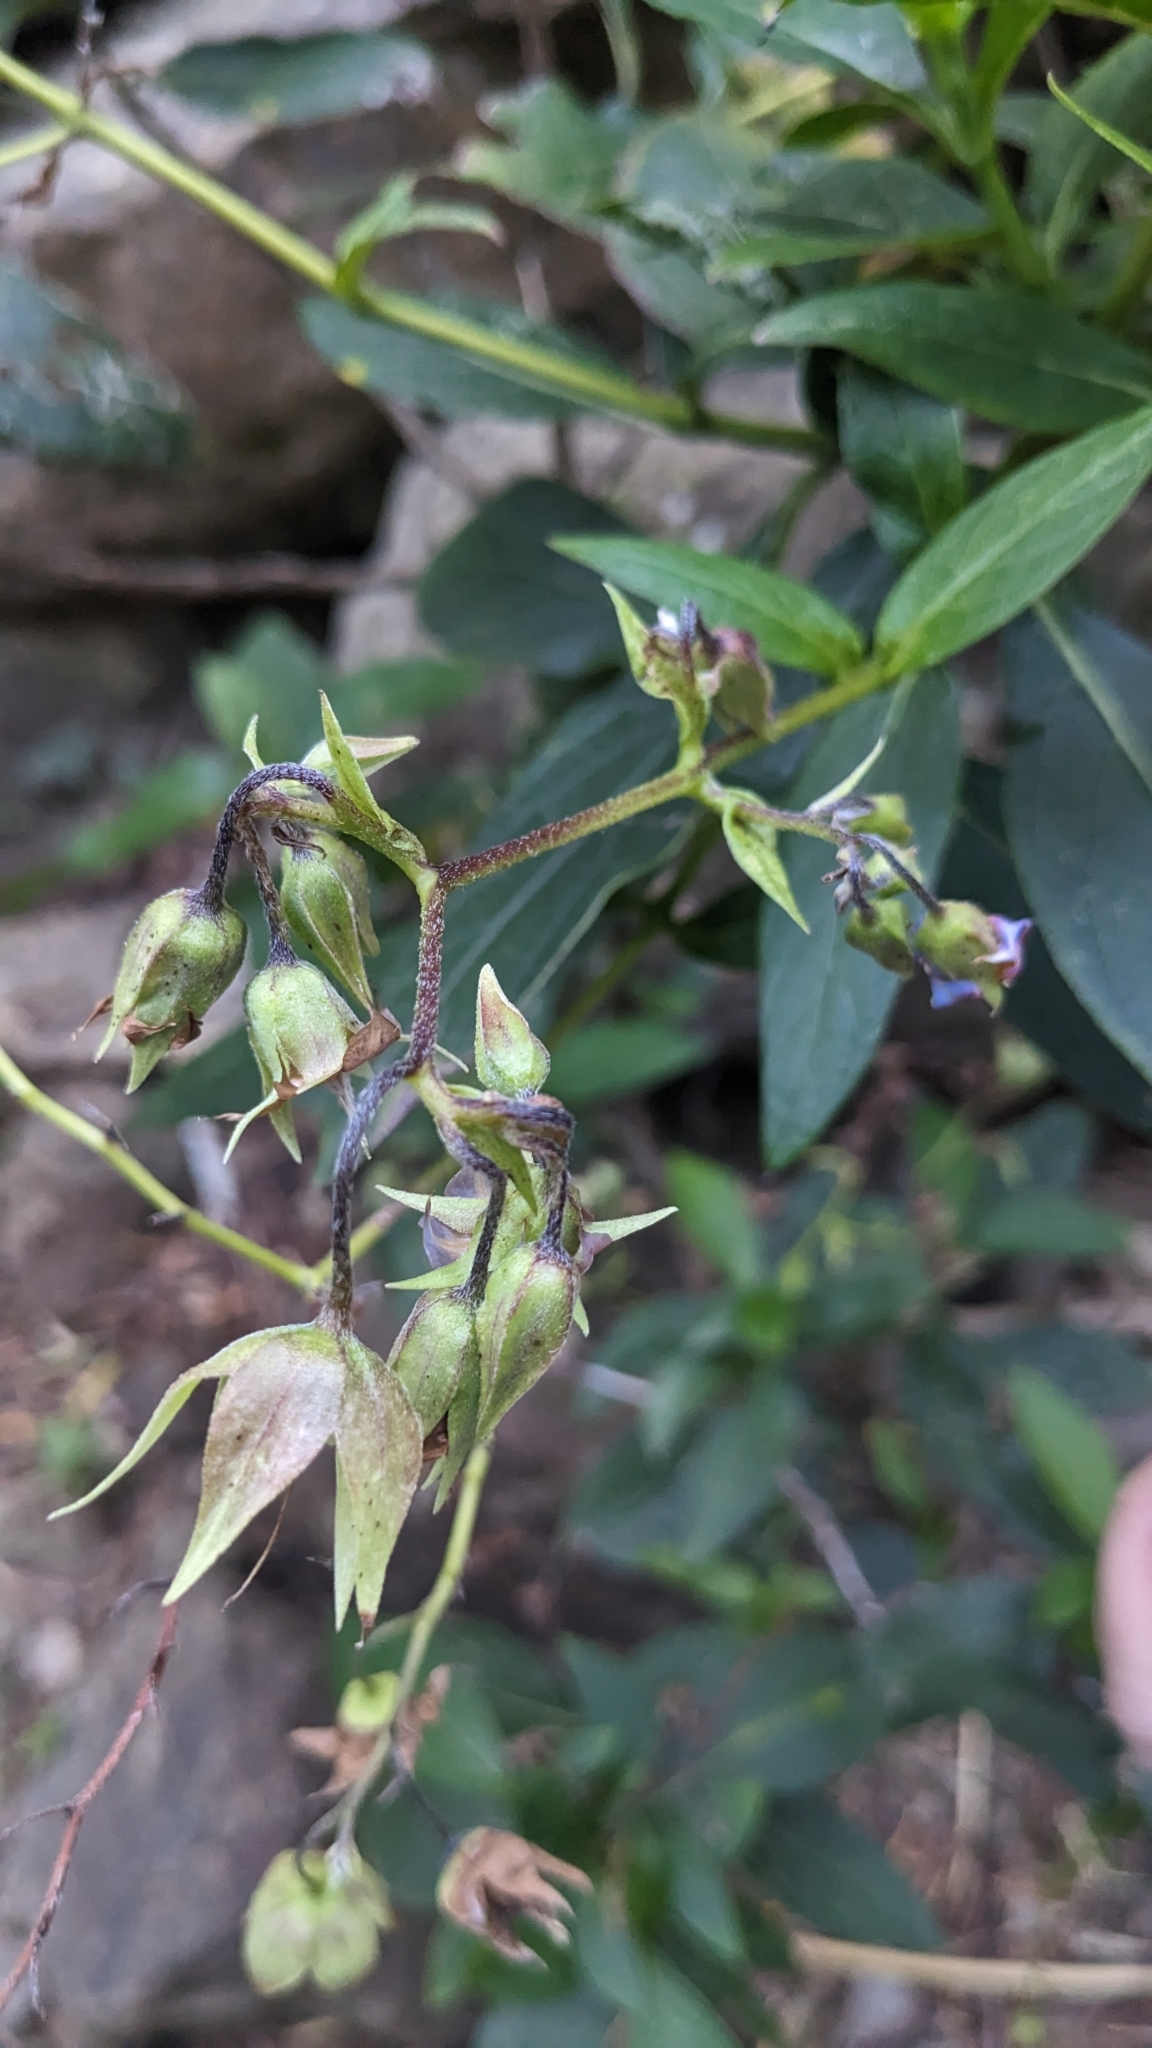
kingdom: Plantae
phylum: Tracheophyta
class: Magnoliopsida
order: Boraginales
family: Boraginaceae
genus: Trichodesma
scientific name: Trichodesma calycosum
